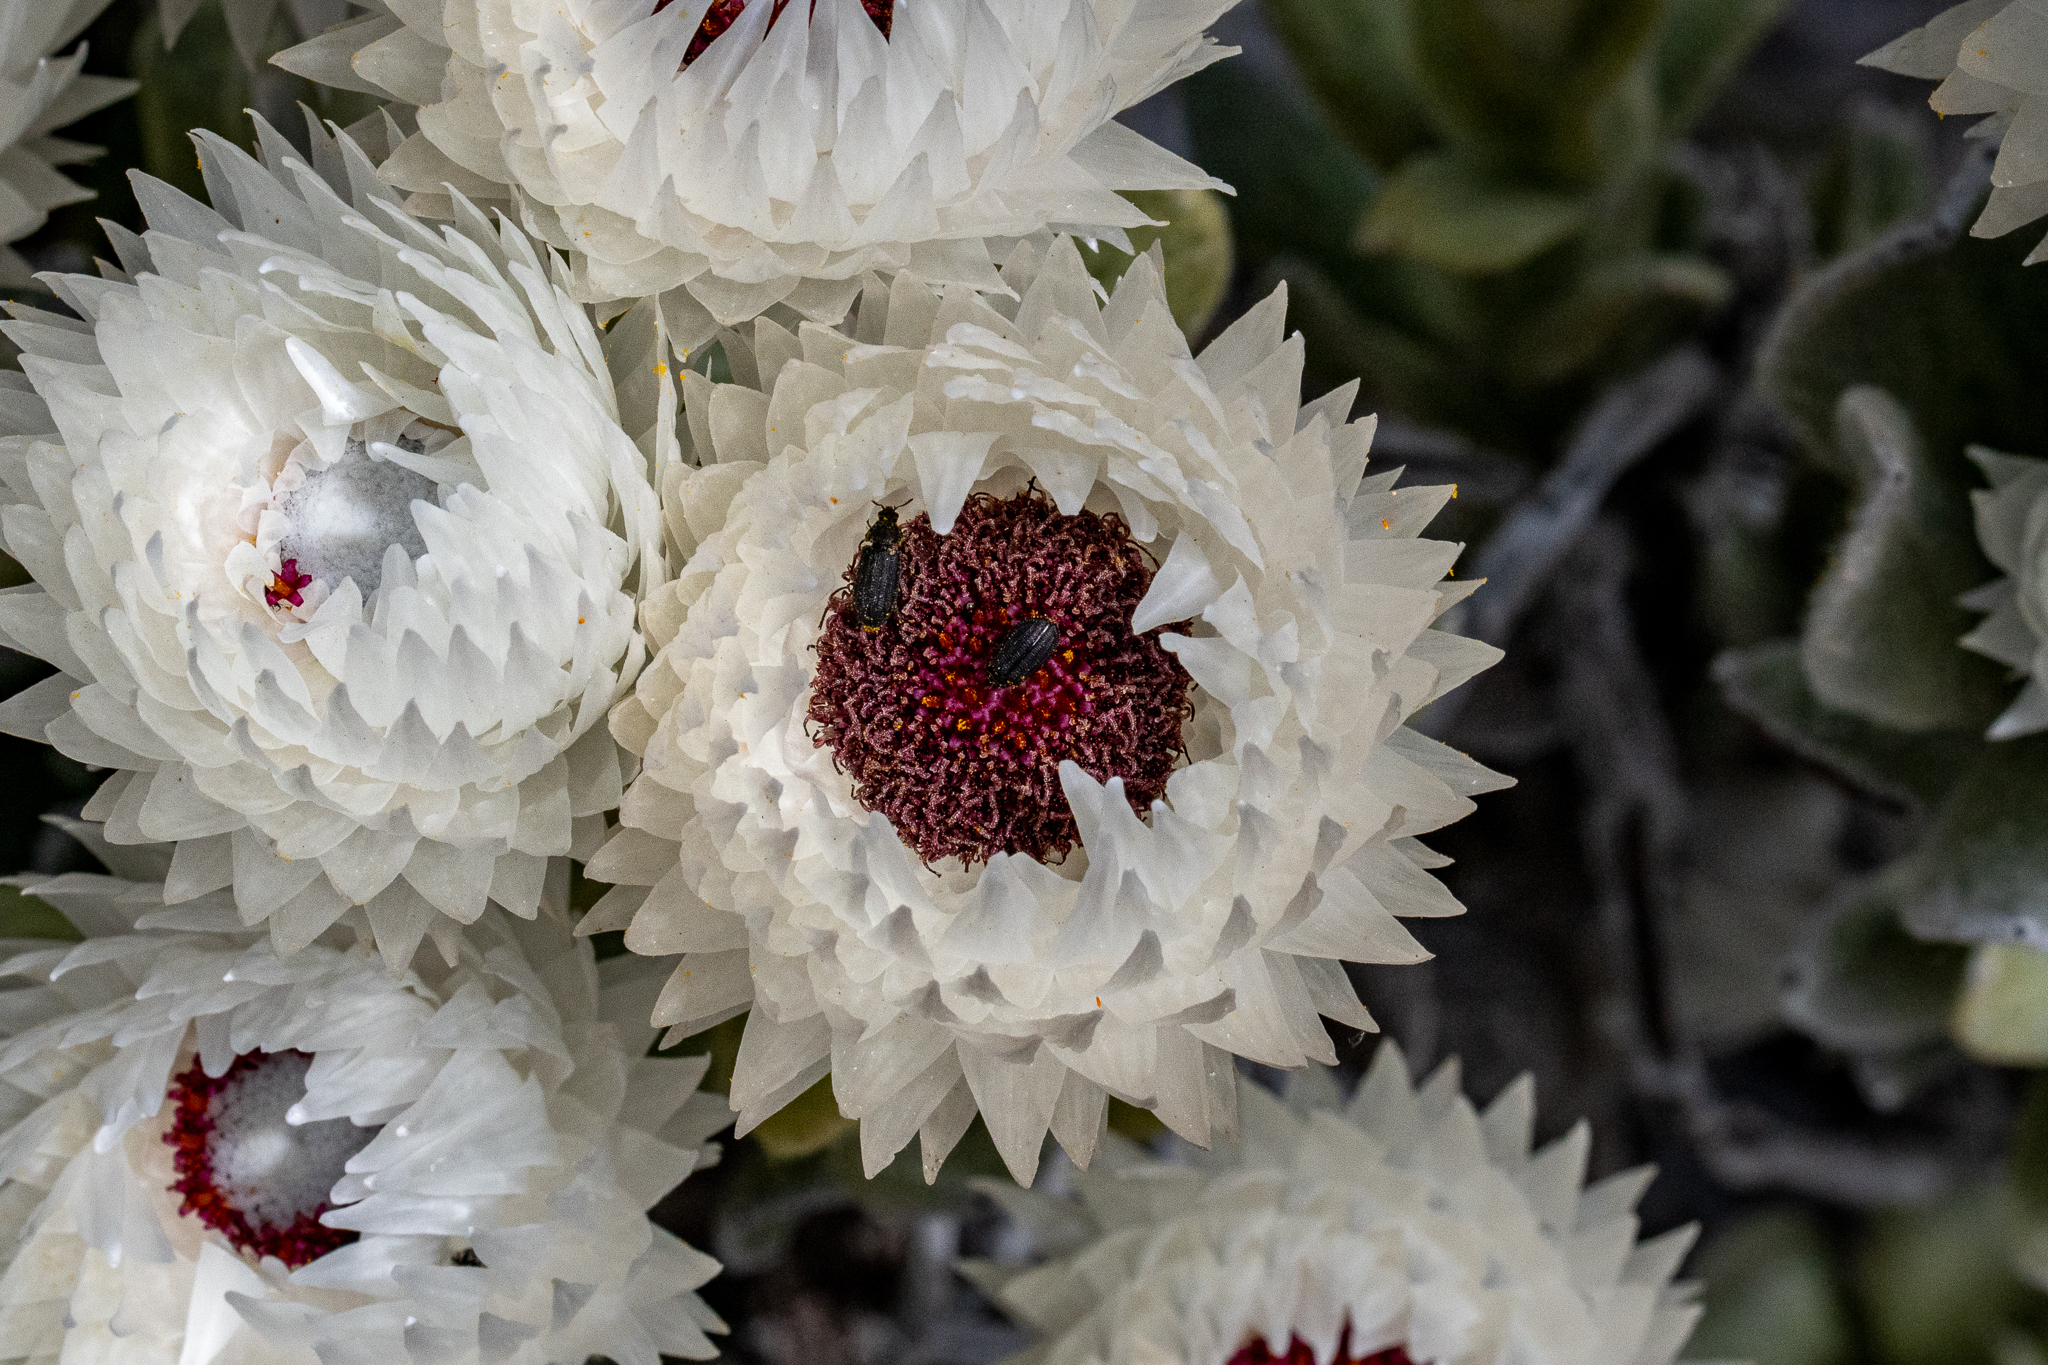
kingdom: Plantae
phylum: Tracheophyta
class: Magnoliopsida
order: Asterales
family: Asteraceae
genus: Syncarpha
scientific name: Syncarpha vestita
